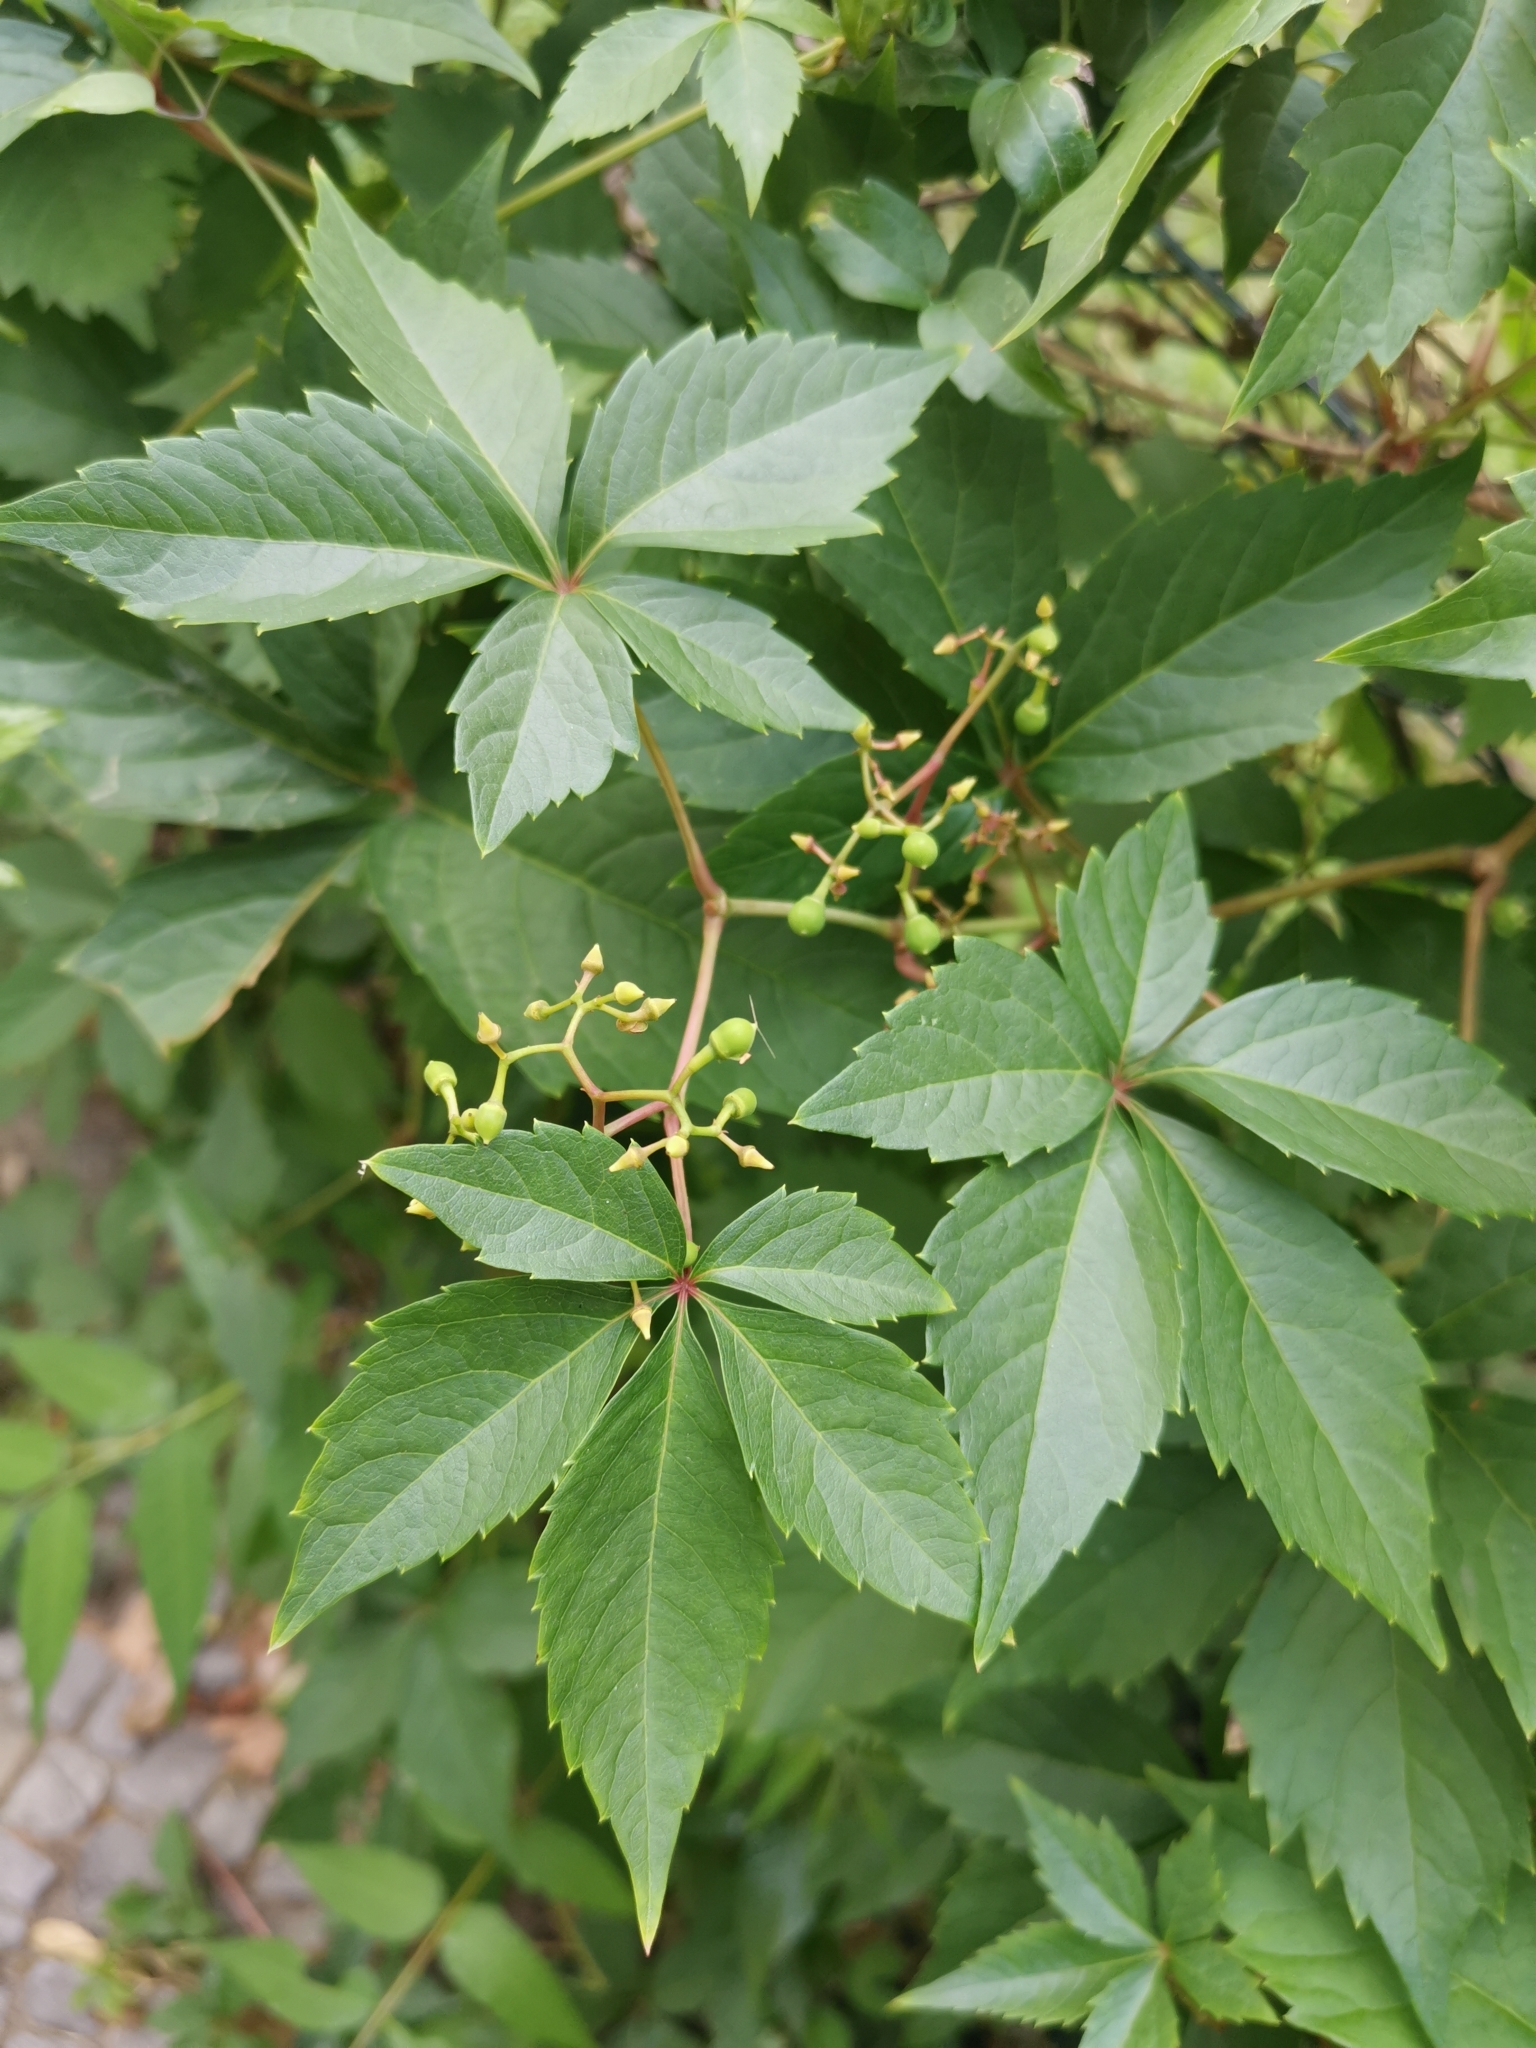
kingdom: Plantae
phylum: Tracheophyta
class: Magnoliopsida
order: Vitales
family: Vitaceae
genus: Parthenocissus
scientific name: Parthenocissus inserta
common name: False virginia-creeper
